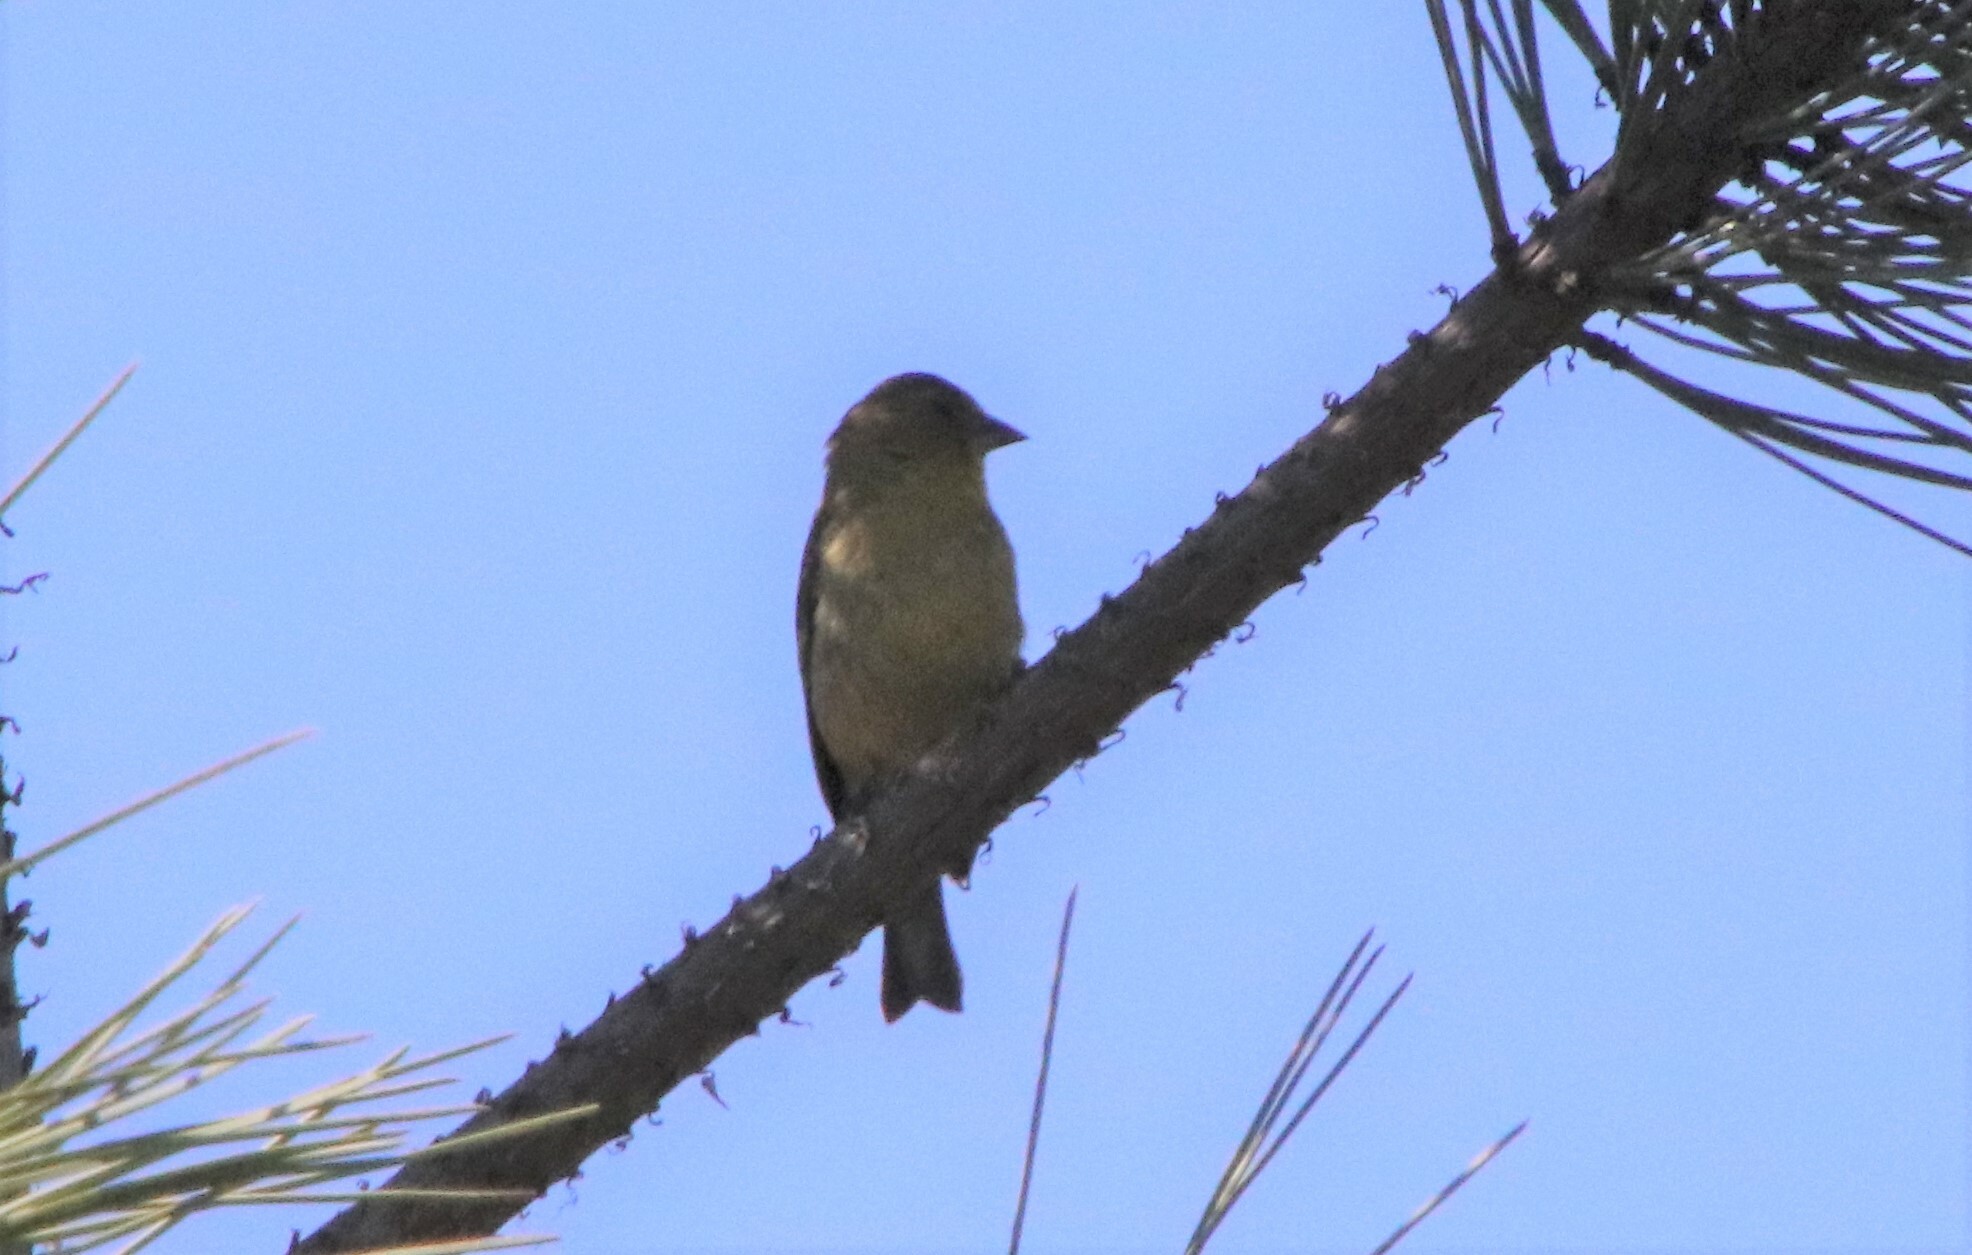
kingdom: Animalia
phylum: Chordata
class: Aves
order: Passeriformes
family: Fringillidae
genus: Spinus
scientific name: Spinus psaltria
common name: Lesser goldfinch
